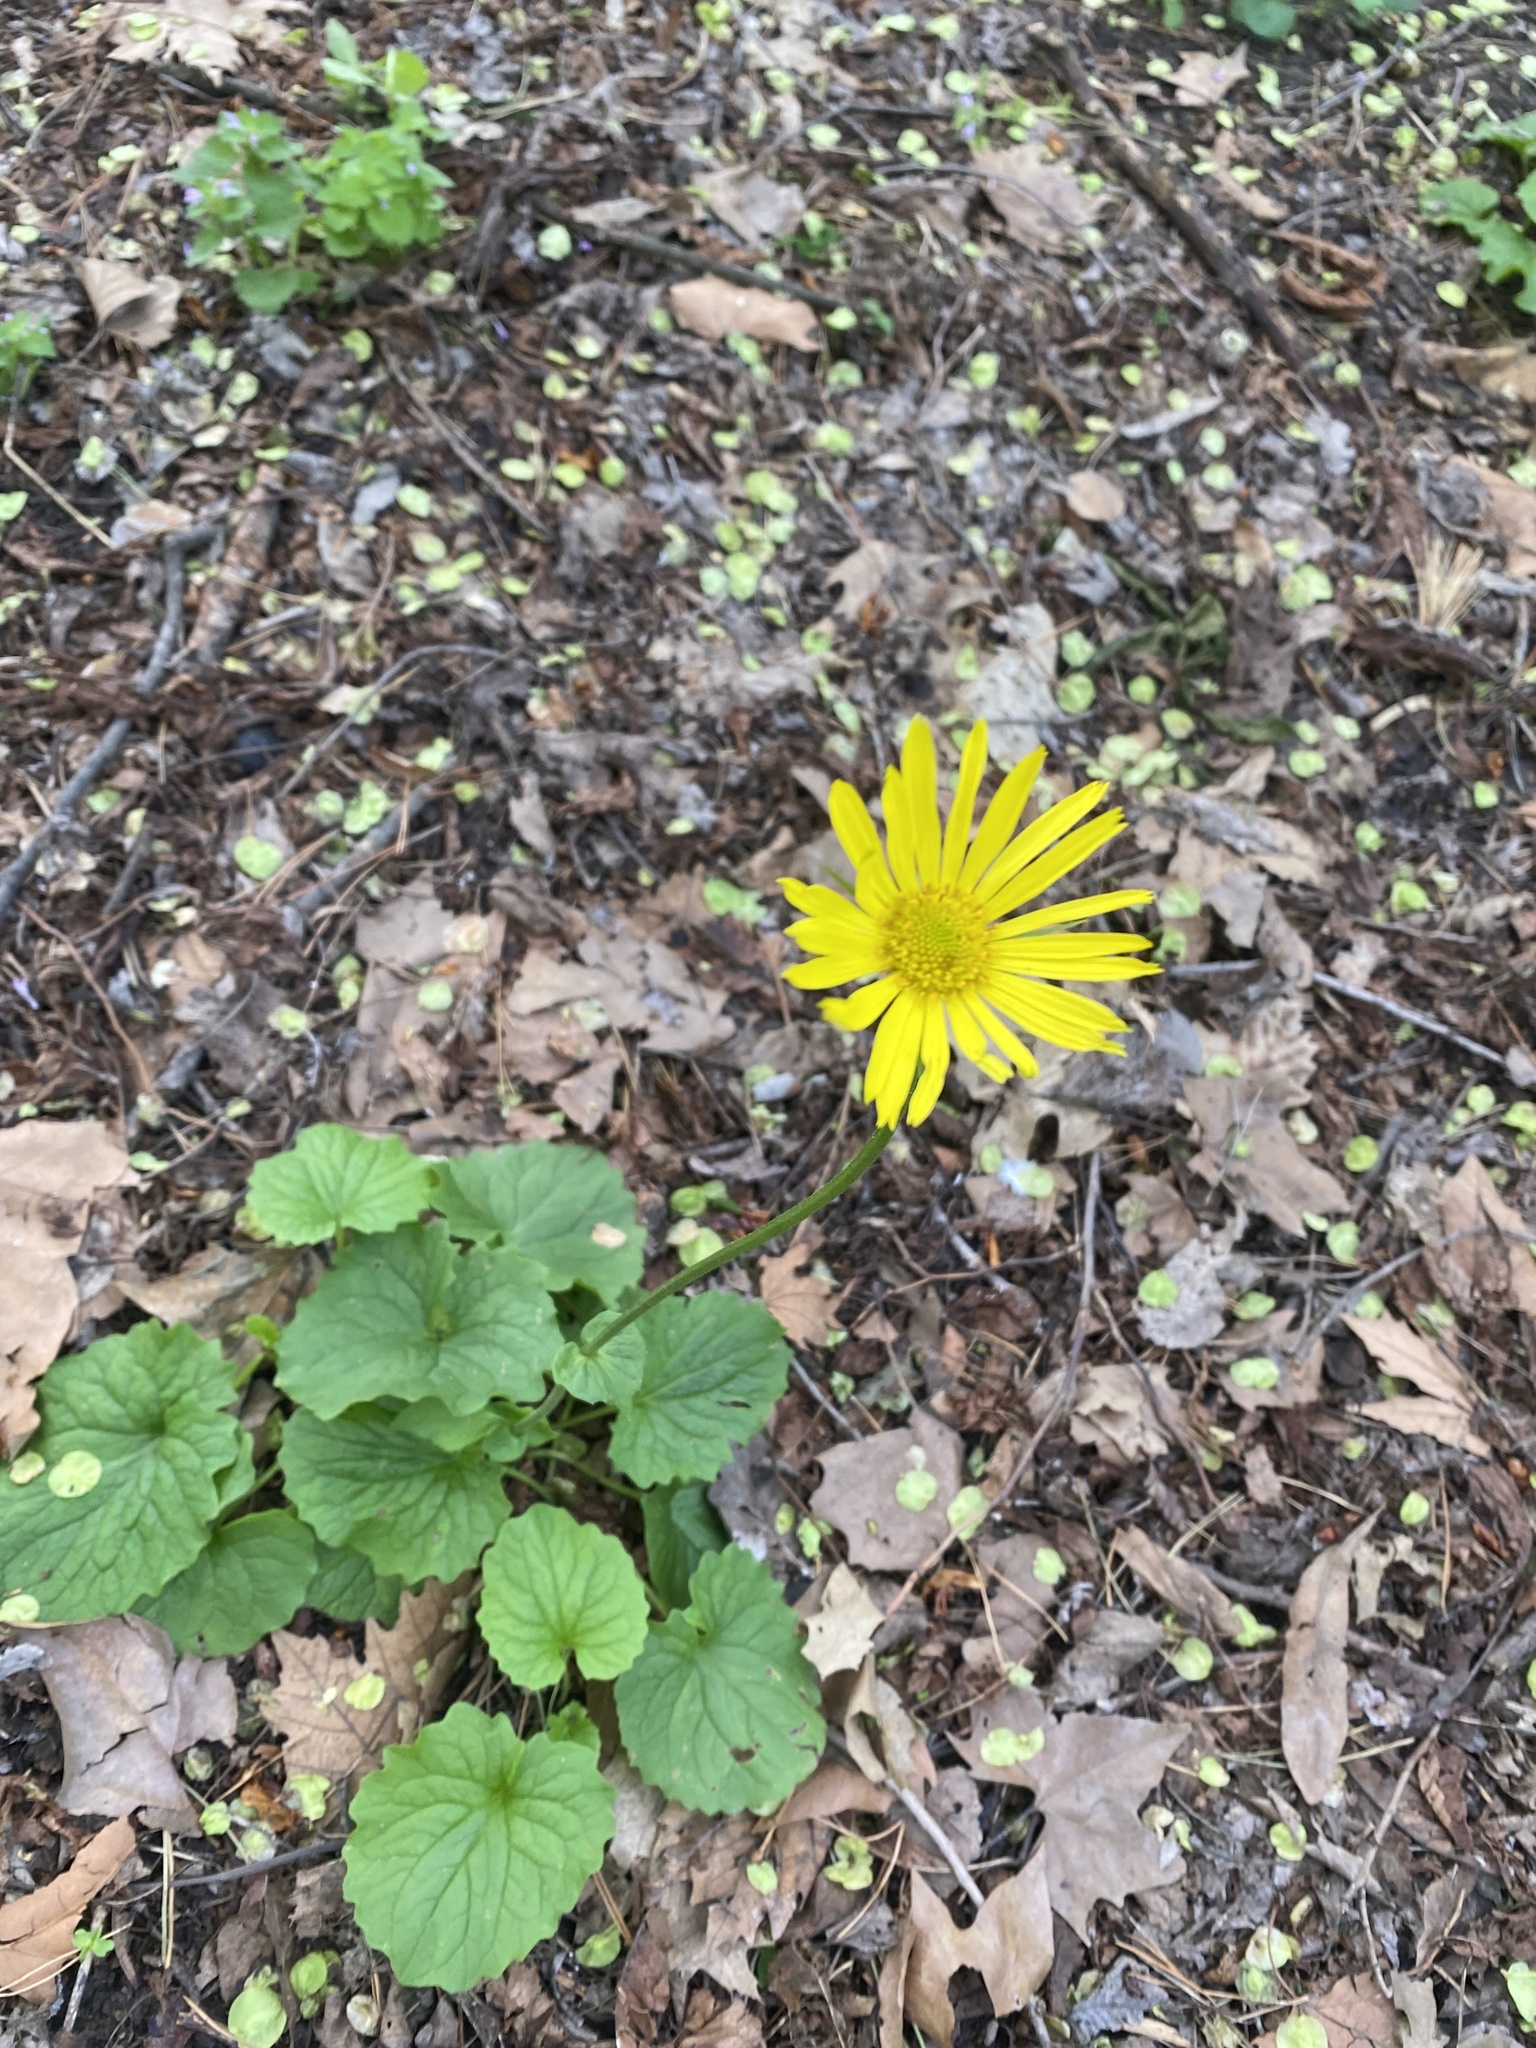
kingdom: Plantae
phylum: Tracheophyta
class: Magnoliopsida
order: Asterales
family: Asteraceae
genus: Doronicum
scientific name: Doronicum
